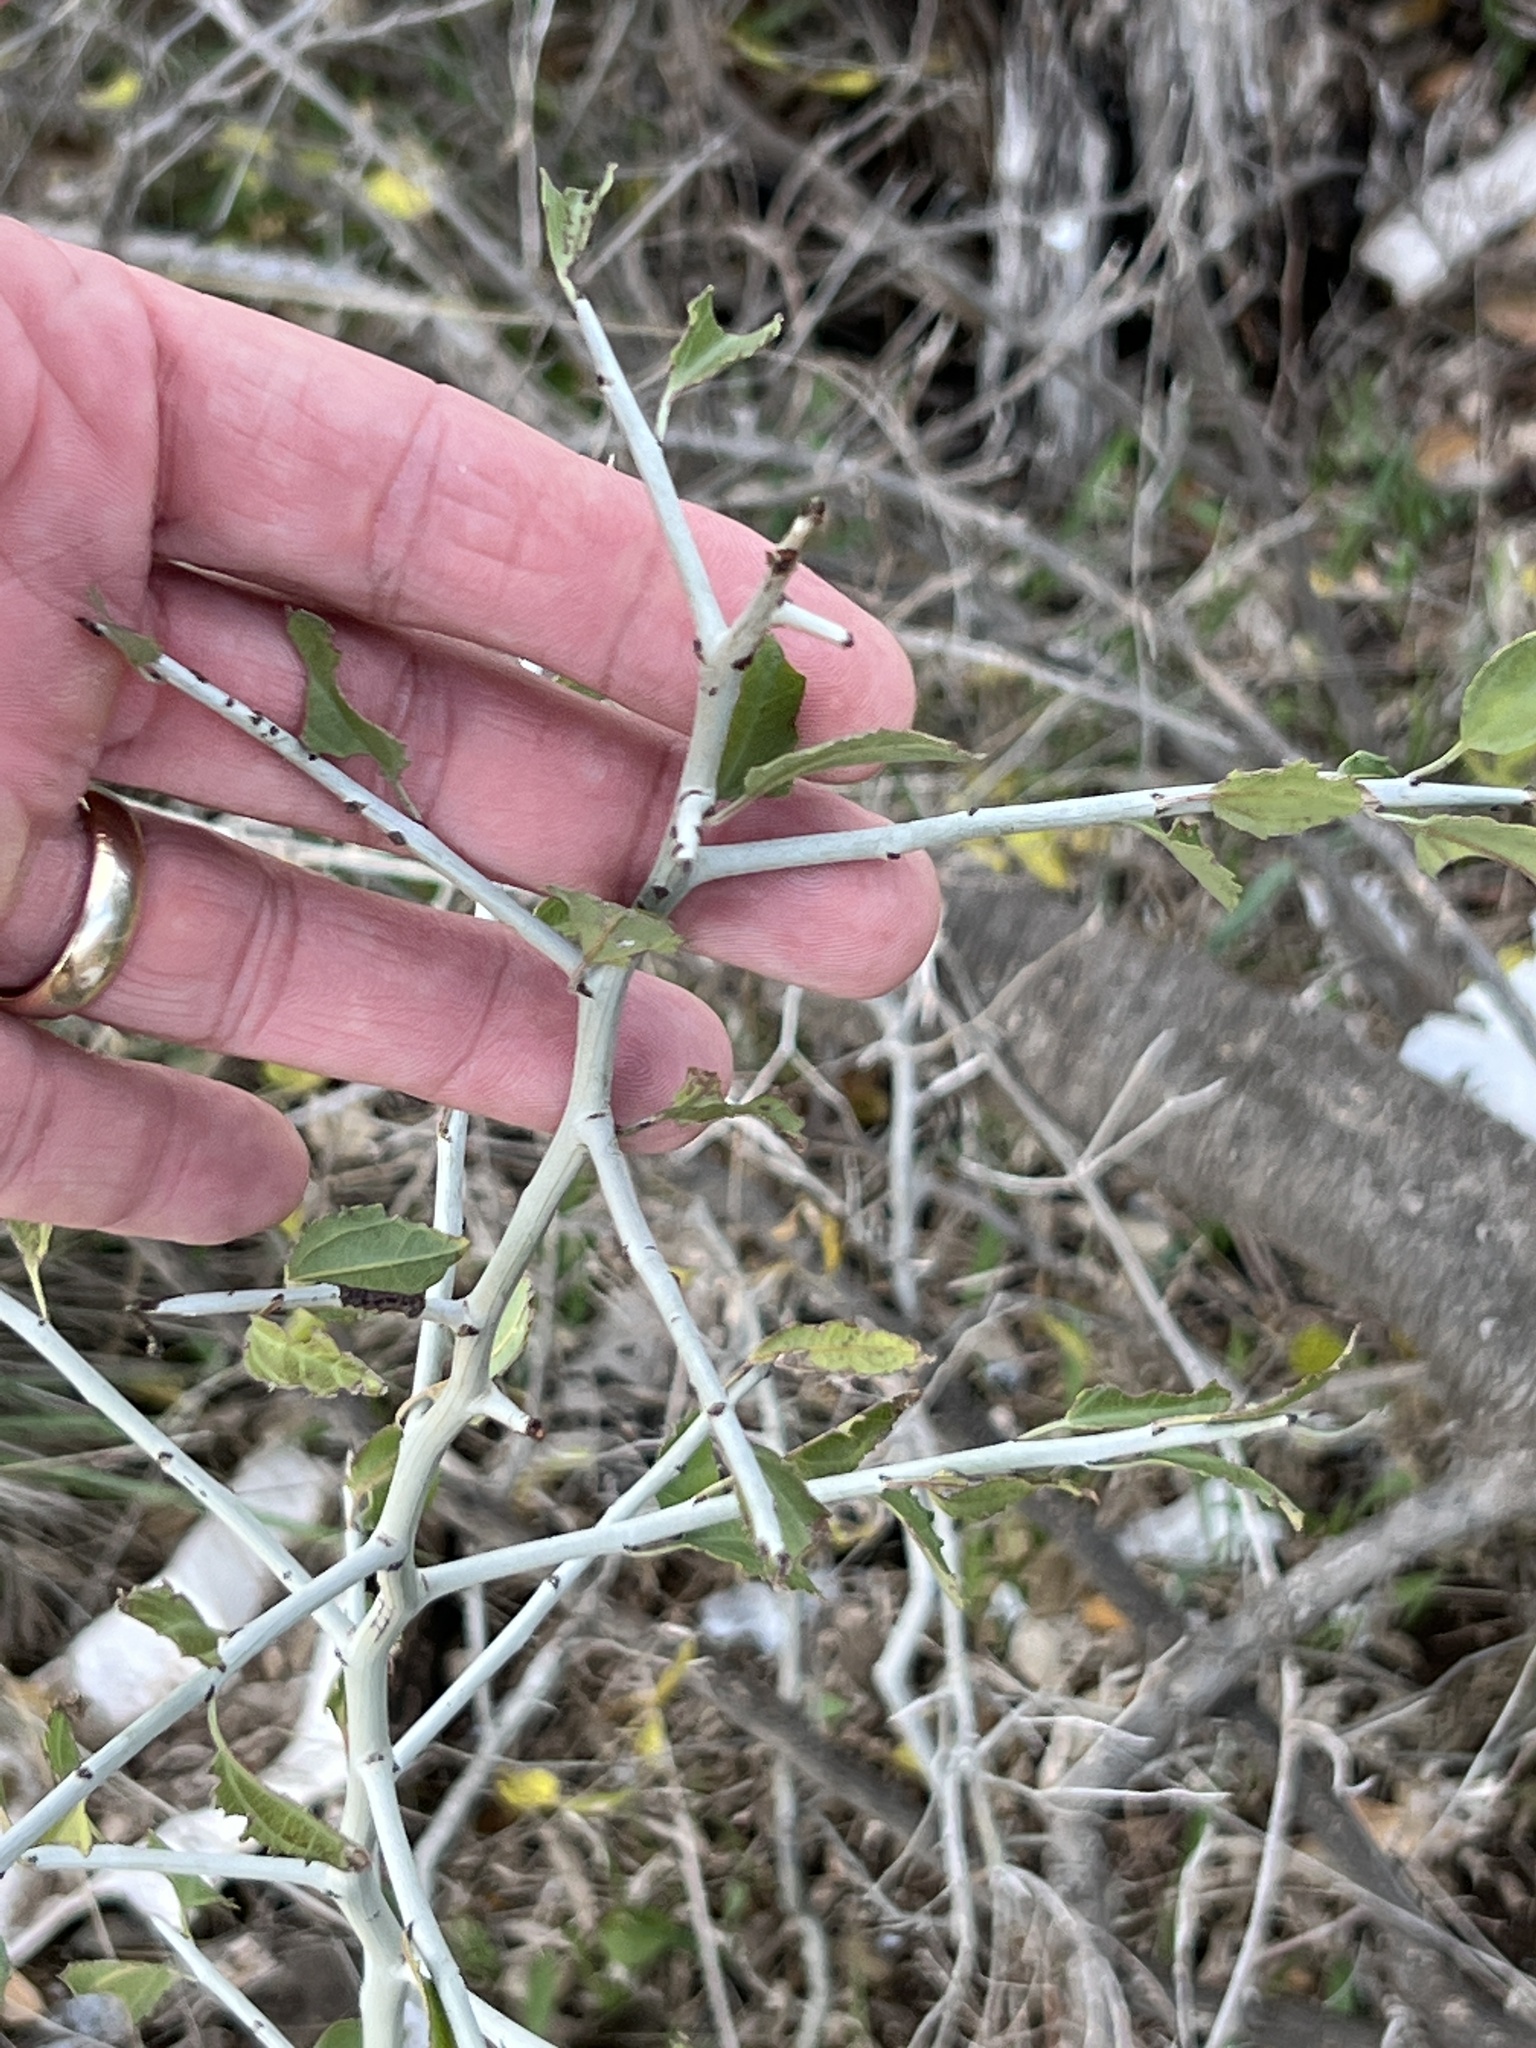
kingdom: Plantae
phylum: Tracheophyta
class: Magnoliopsida
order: Rosales
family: Rhamnaceae
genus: Sarcomphalus
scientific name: Sarcomphalus obtusifolius
